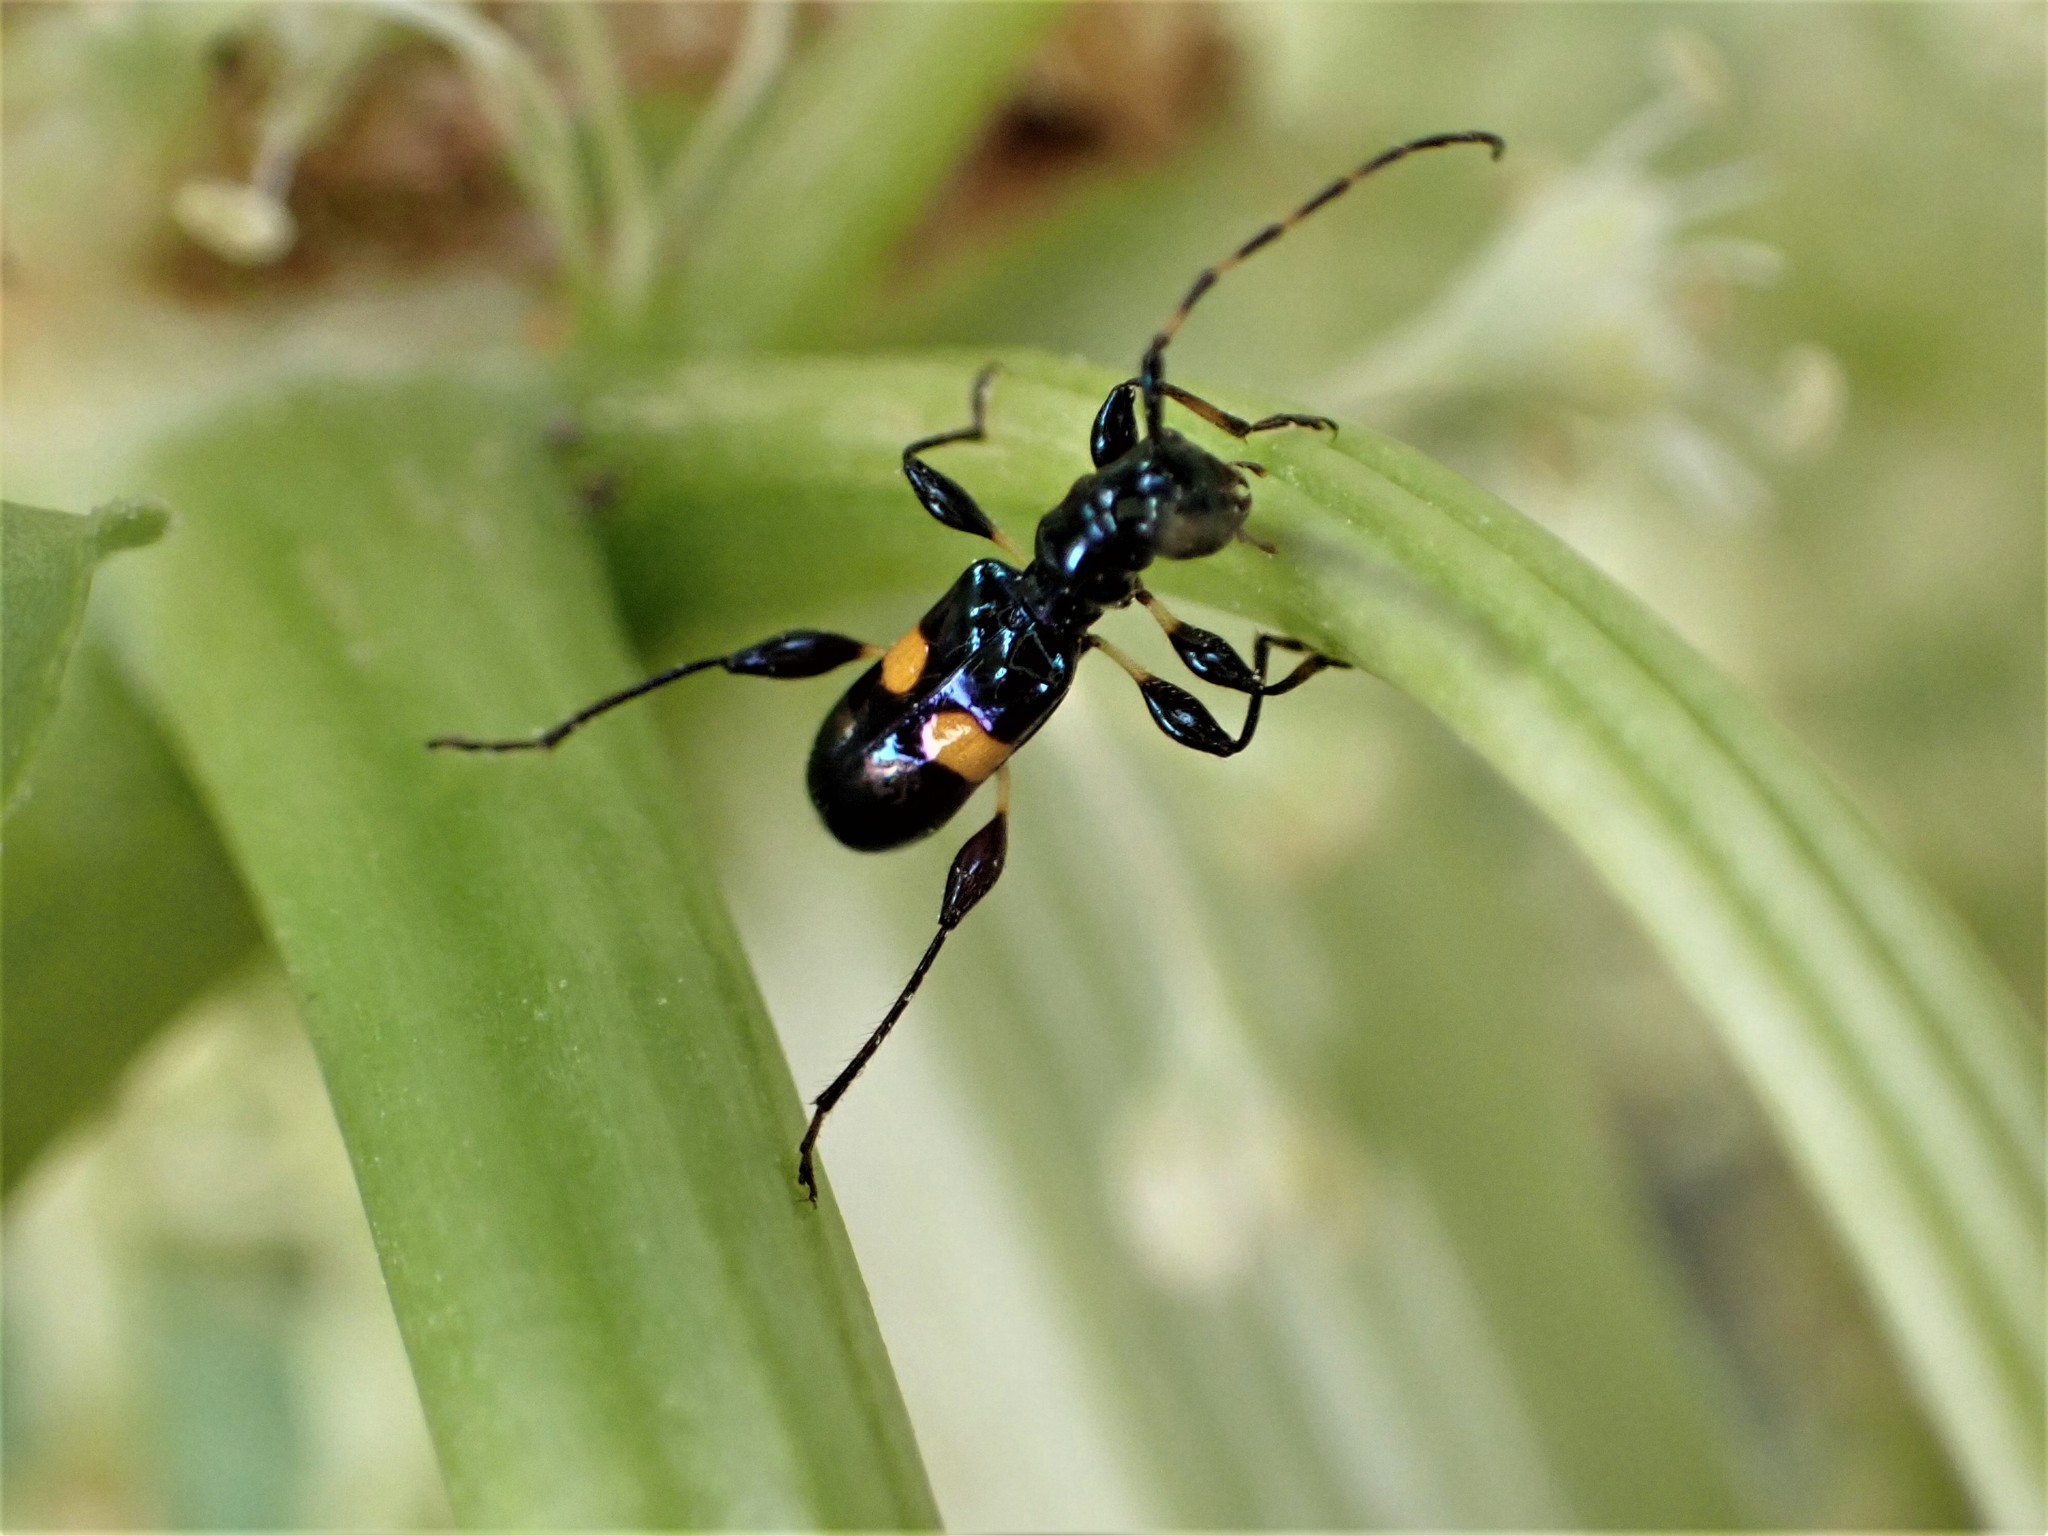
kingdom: Animalia
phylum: Arthropoda
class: Insecta
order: Coleoptera
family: Cerambycidae
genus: Zorion
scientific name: Zorion guttigerum
